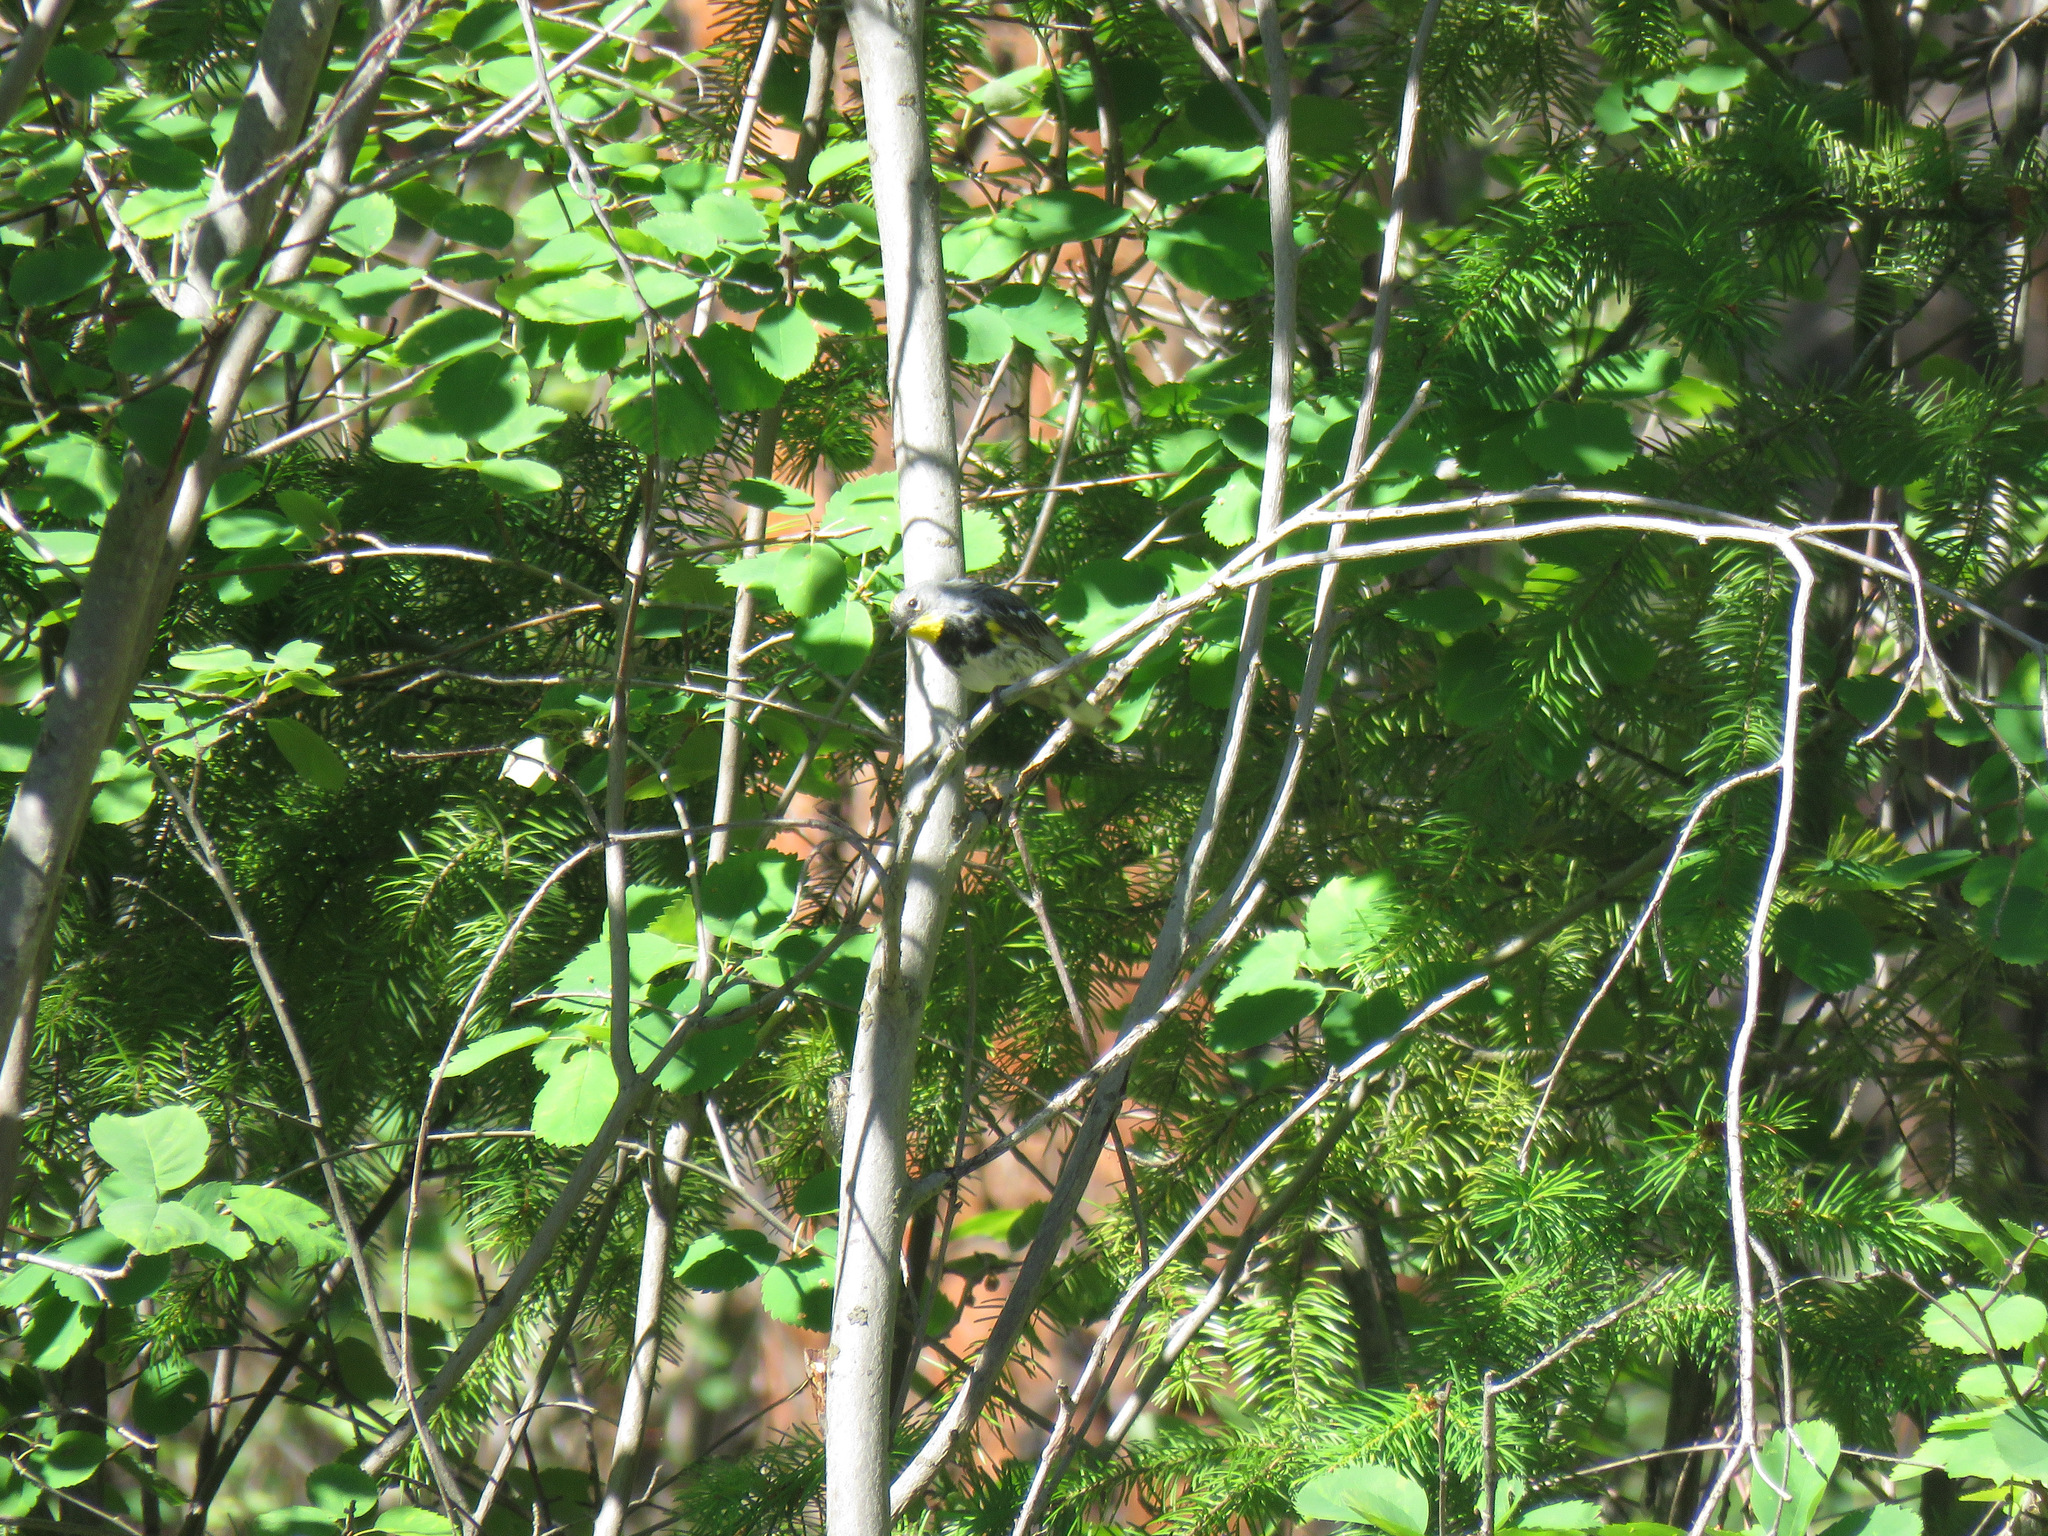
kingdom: Animalia
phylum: Chordata
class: Aves
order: Passeriformes
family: Parulidae
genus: Setophaga
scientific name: Setophaga coronata
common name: Myrtle warbler
